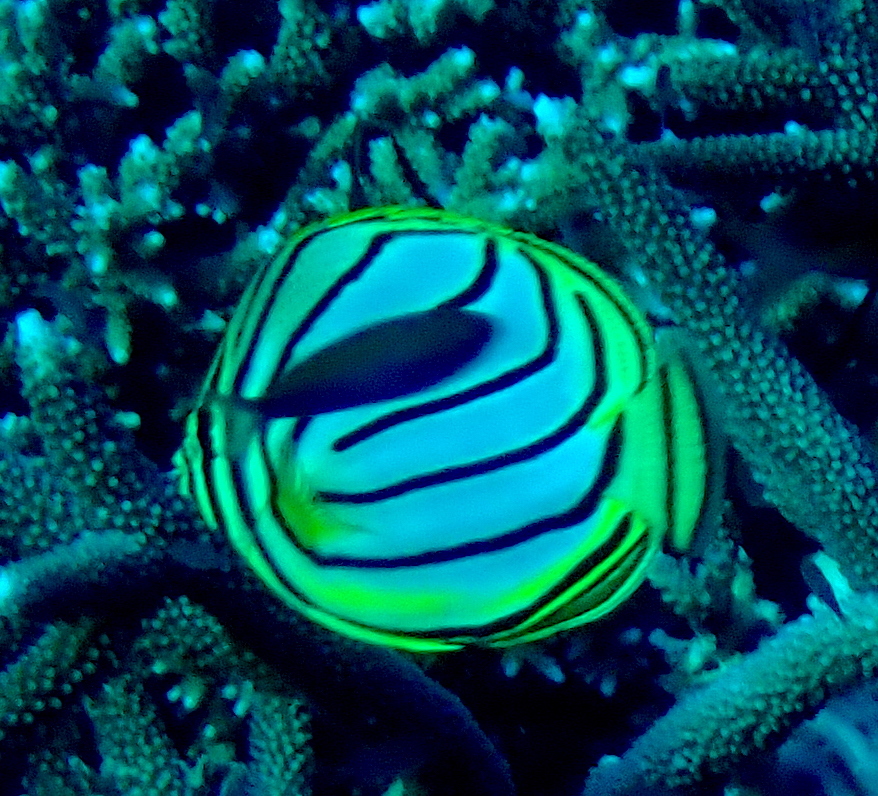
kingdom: Animalia
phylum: Chordata
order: Perciformes
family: Chaetodontidae
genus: Chaetodon
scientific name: Chaetodon meyeri
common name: Meyer's butterflyfish
